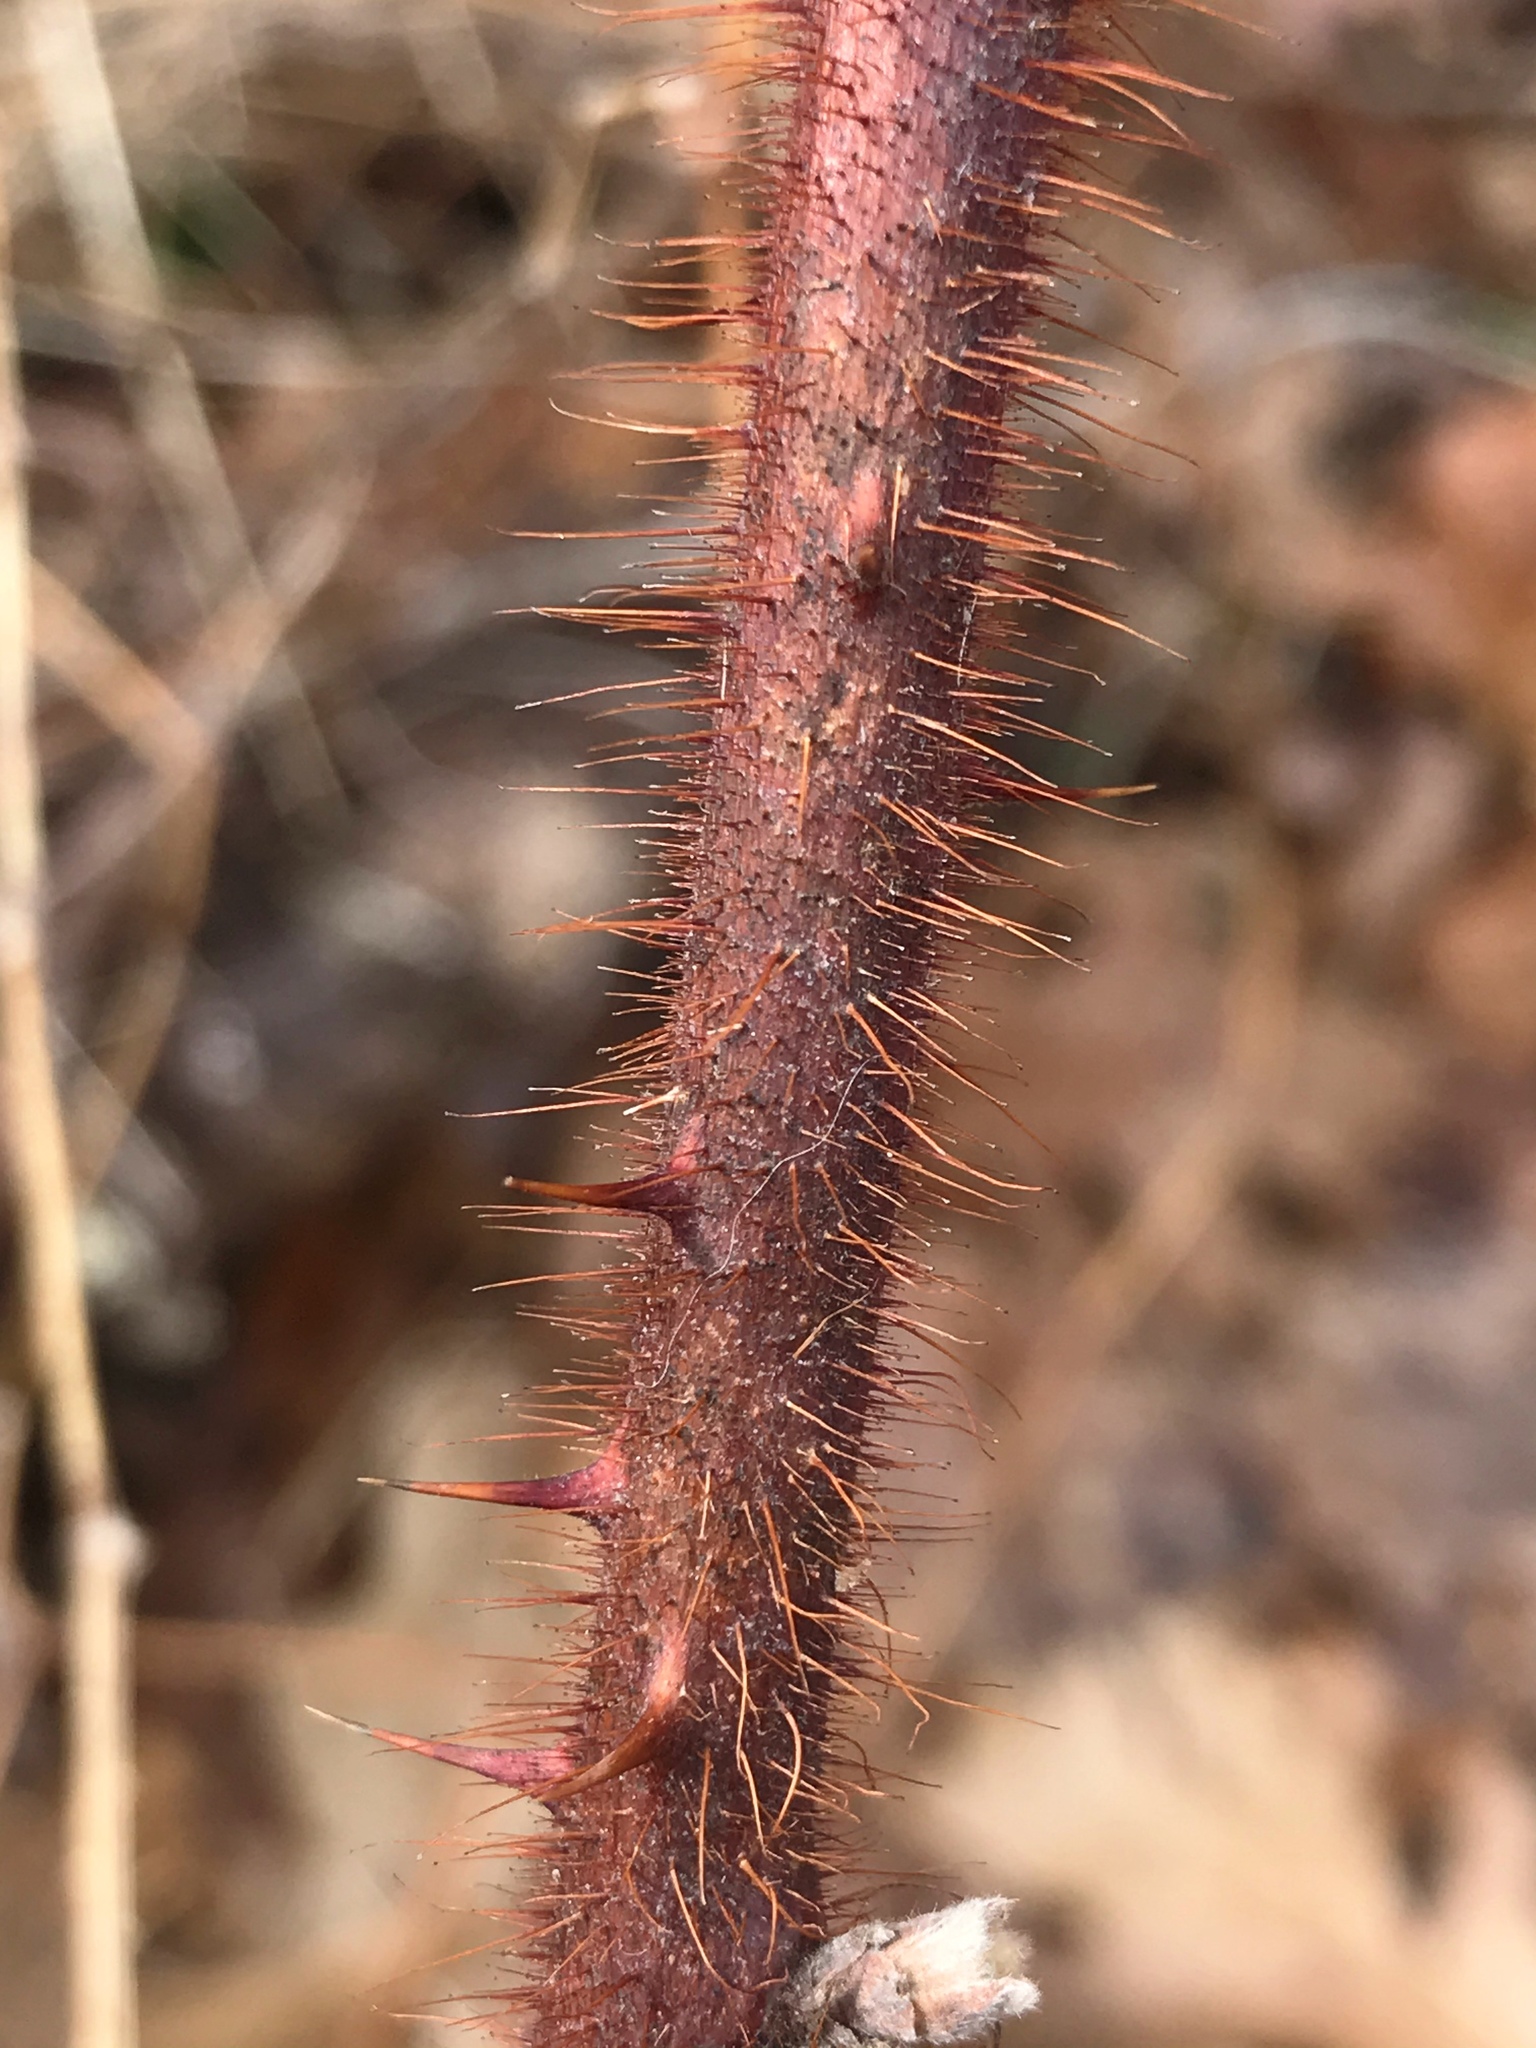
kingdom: Plantae
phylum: Tracheophyta
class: Magnoliopsida
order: Rosales
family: Rosaceae
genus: Rubus
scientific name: Rubus phoenicolasius
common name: Japanese wineberry
